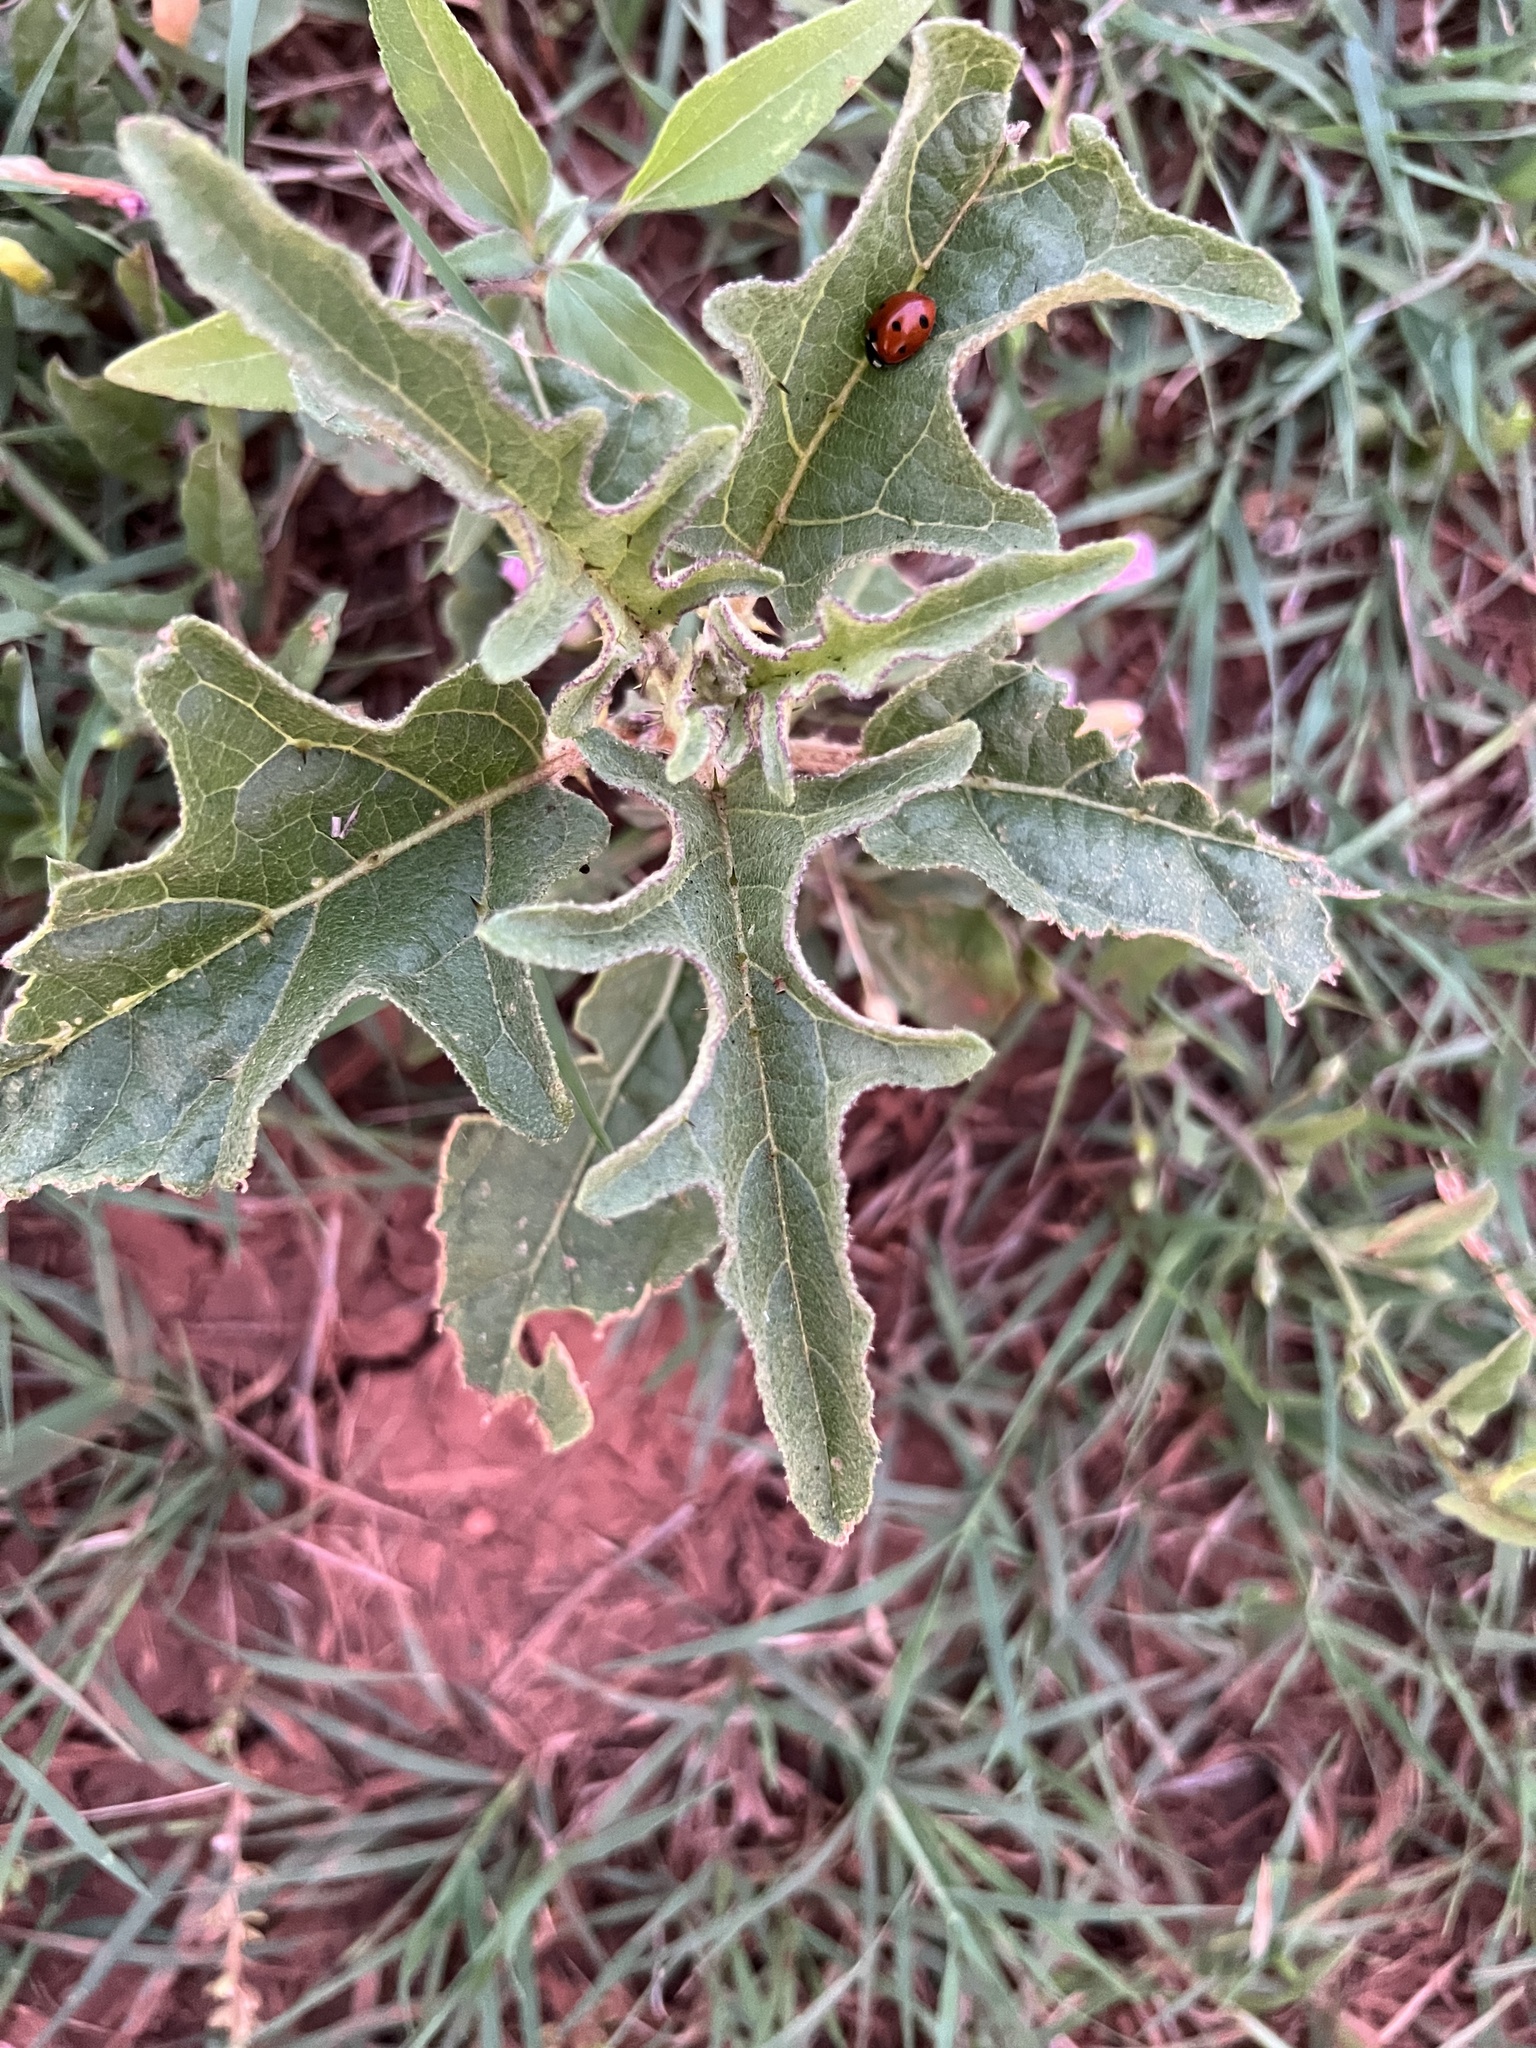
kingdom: Plantae
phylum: Tracheophyta
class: Magnoliopsida
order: Solanales
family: Solanaceae
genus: Solanum
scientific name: Solanum dimidiatum
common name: Carolina horse-nettle
